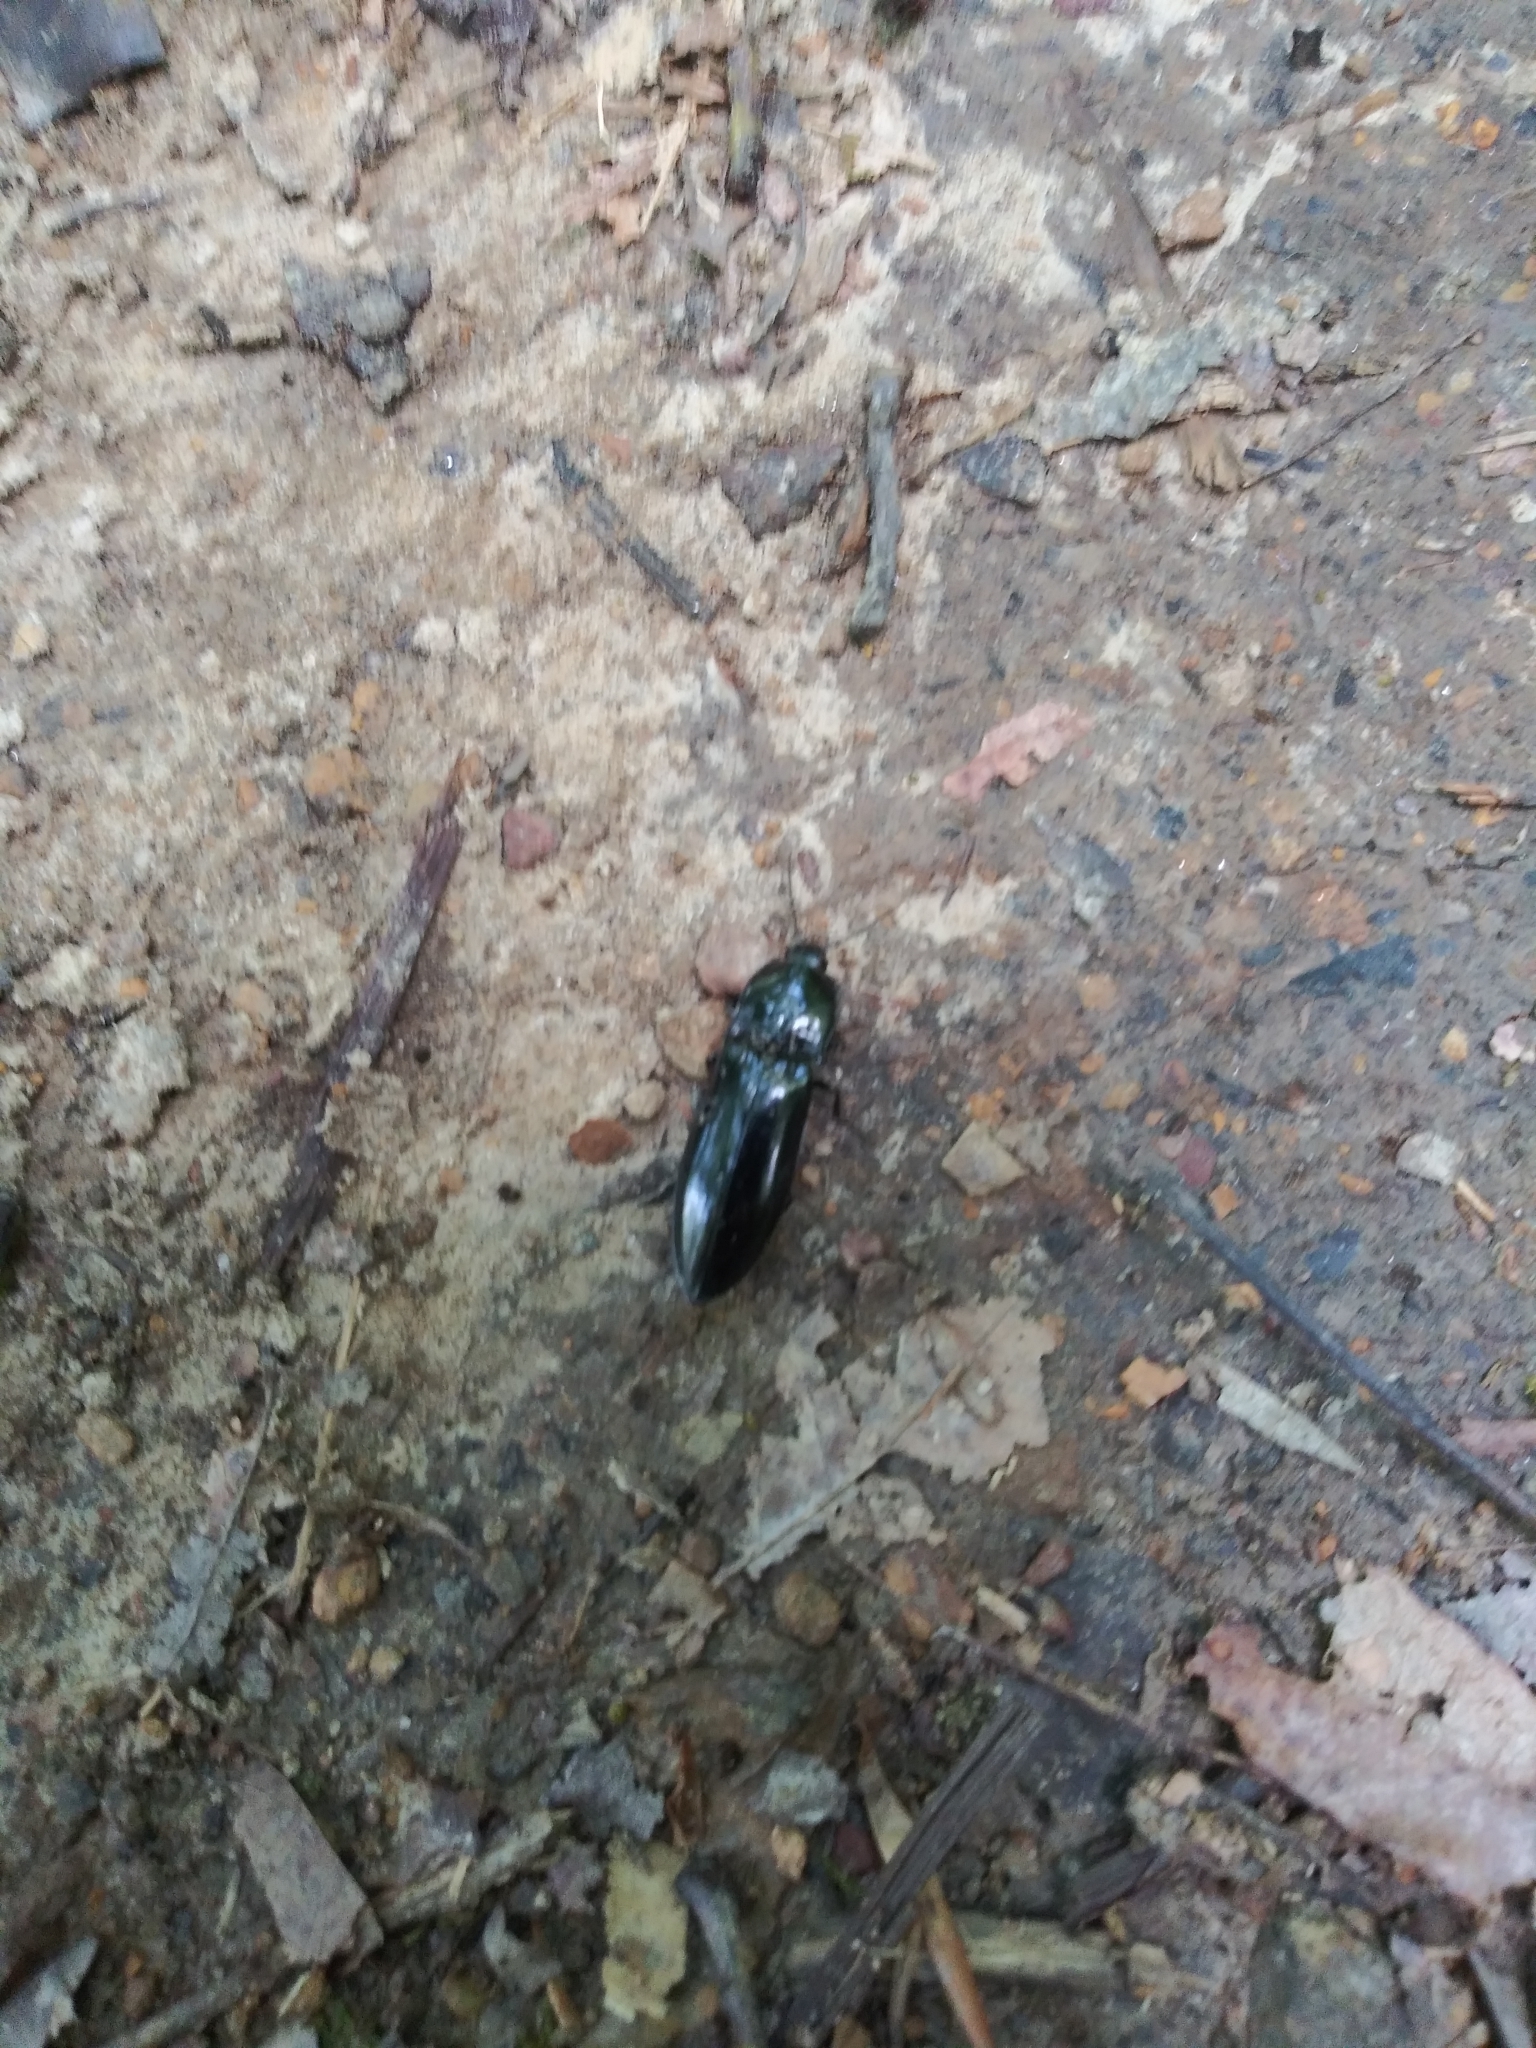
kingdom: Animalia
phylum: Arthropoda
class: Insecta
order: Coleoptera
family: Elateridae
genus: Melanactes
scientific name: Melanactes piceus
